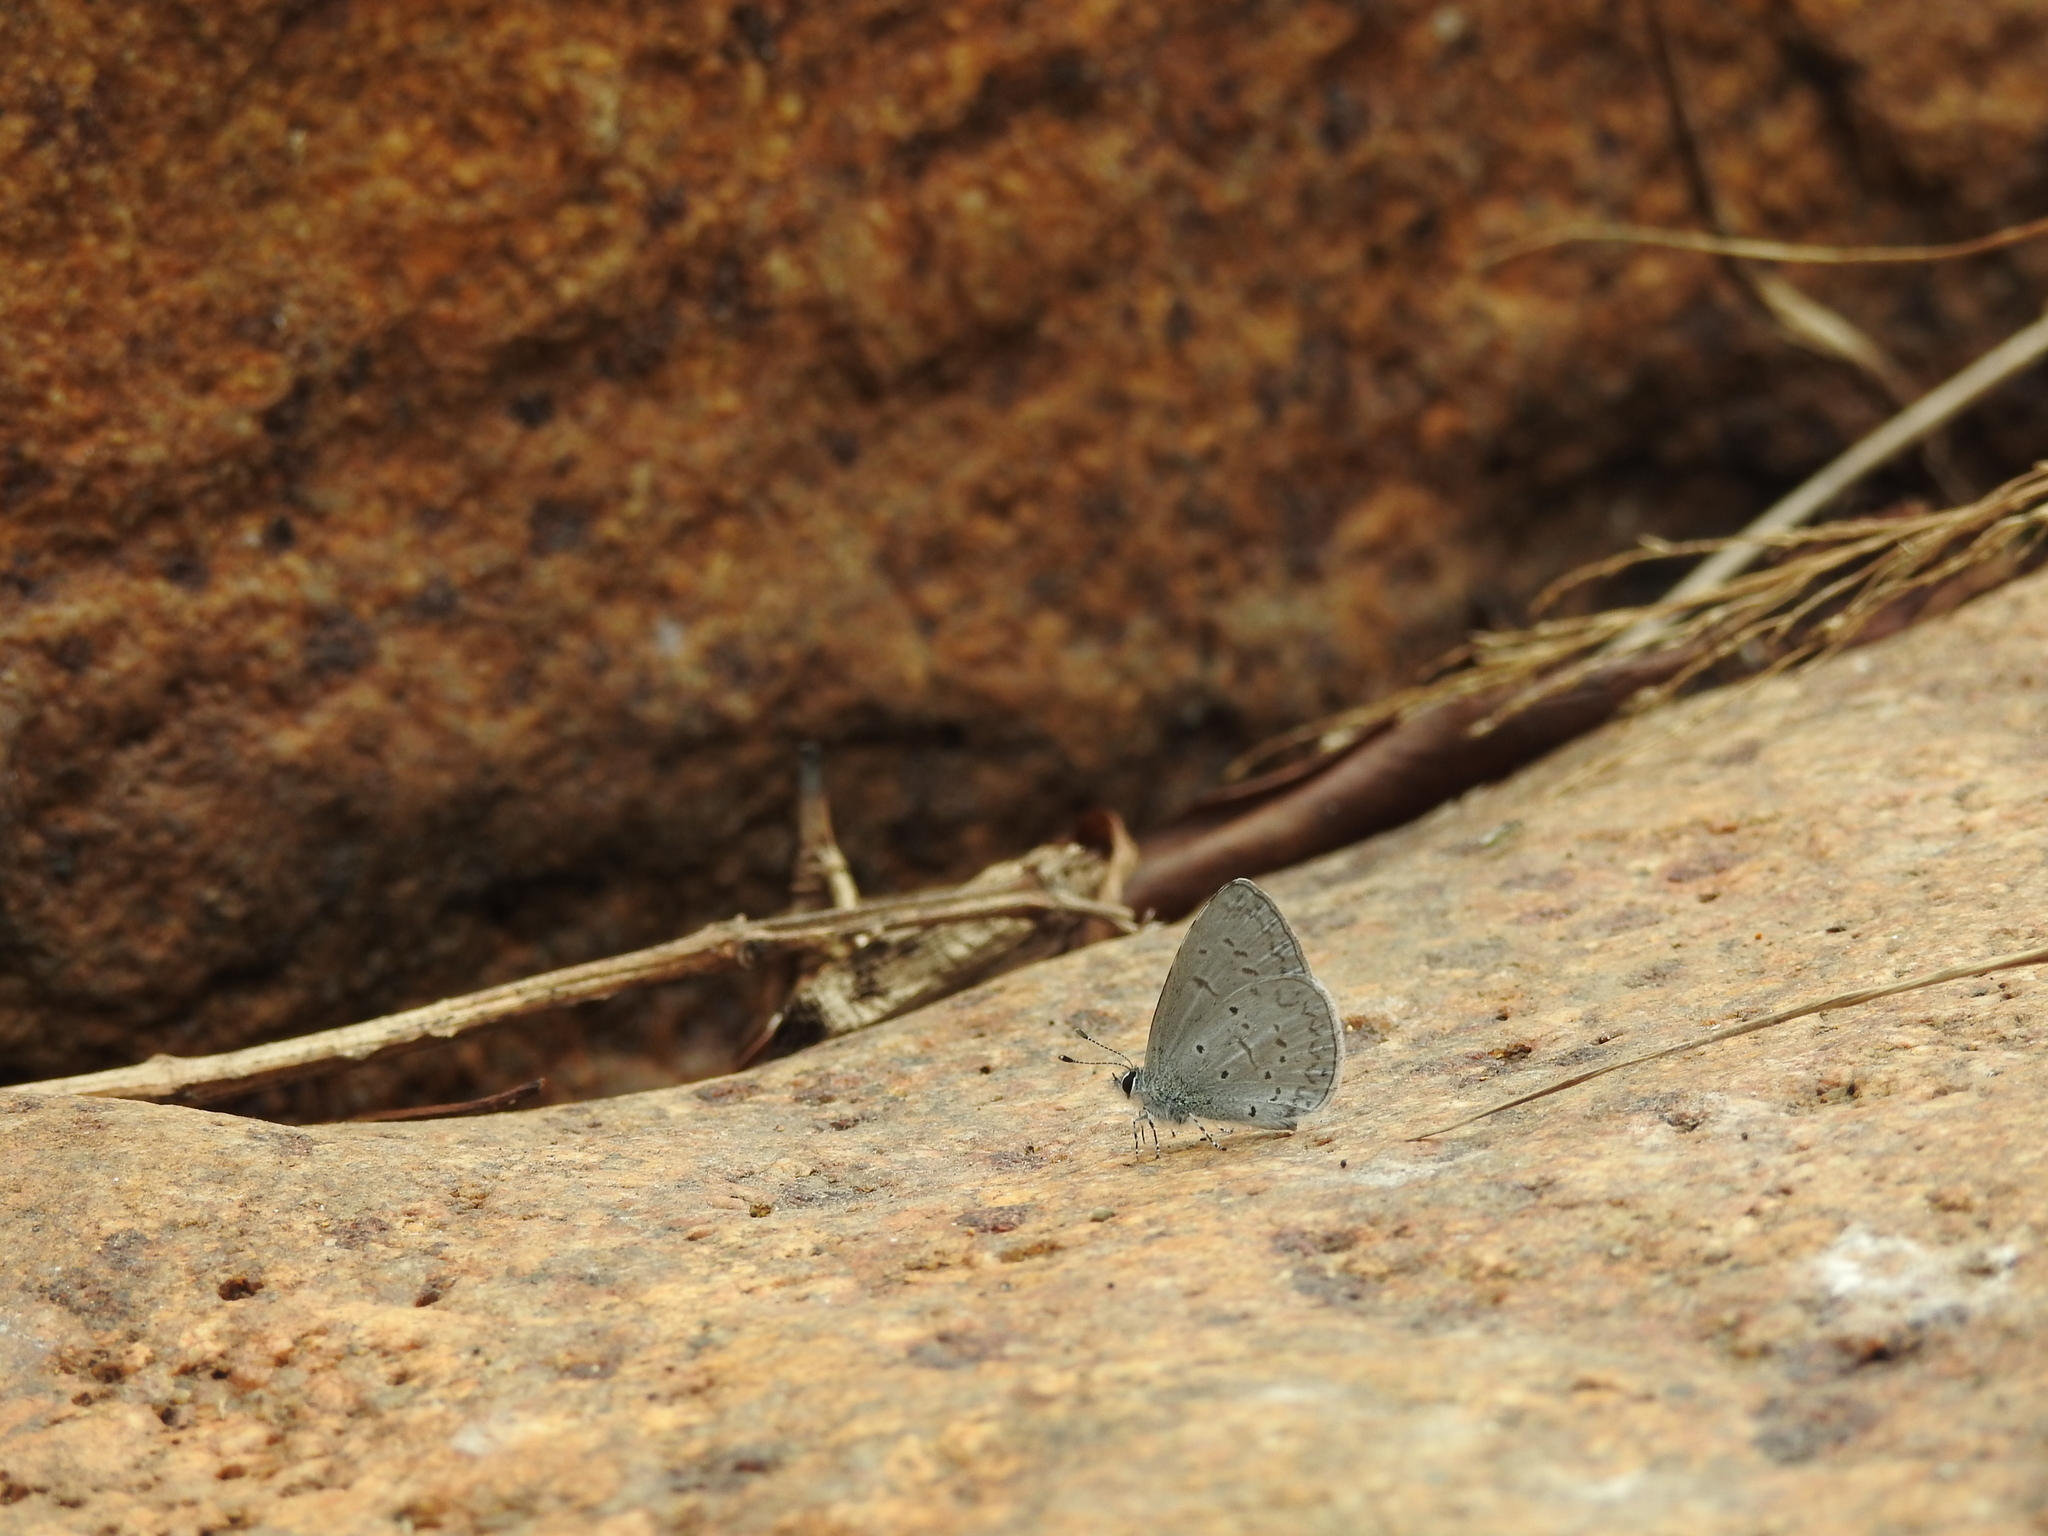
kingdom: Animalia
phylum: Arthropoda
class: Insecta
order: Lepidoptera
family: Lycaenidae
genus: Celastrina
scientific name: Celastrina lavendularis
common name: Plain hedge blue
